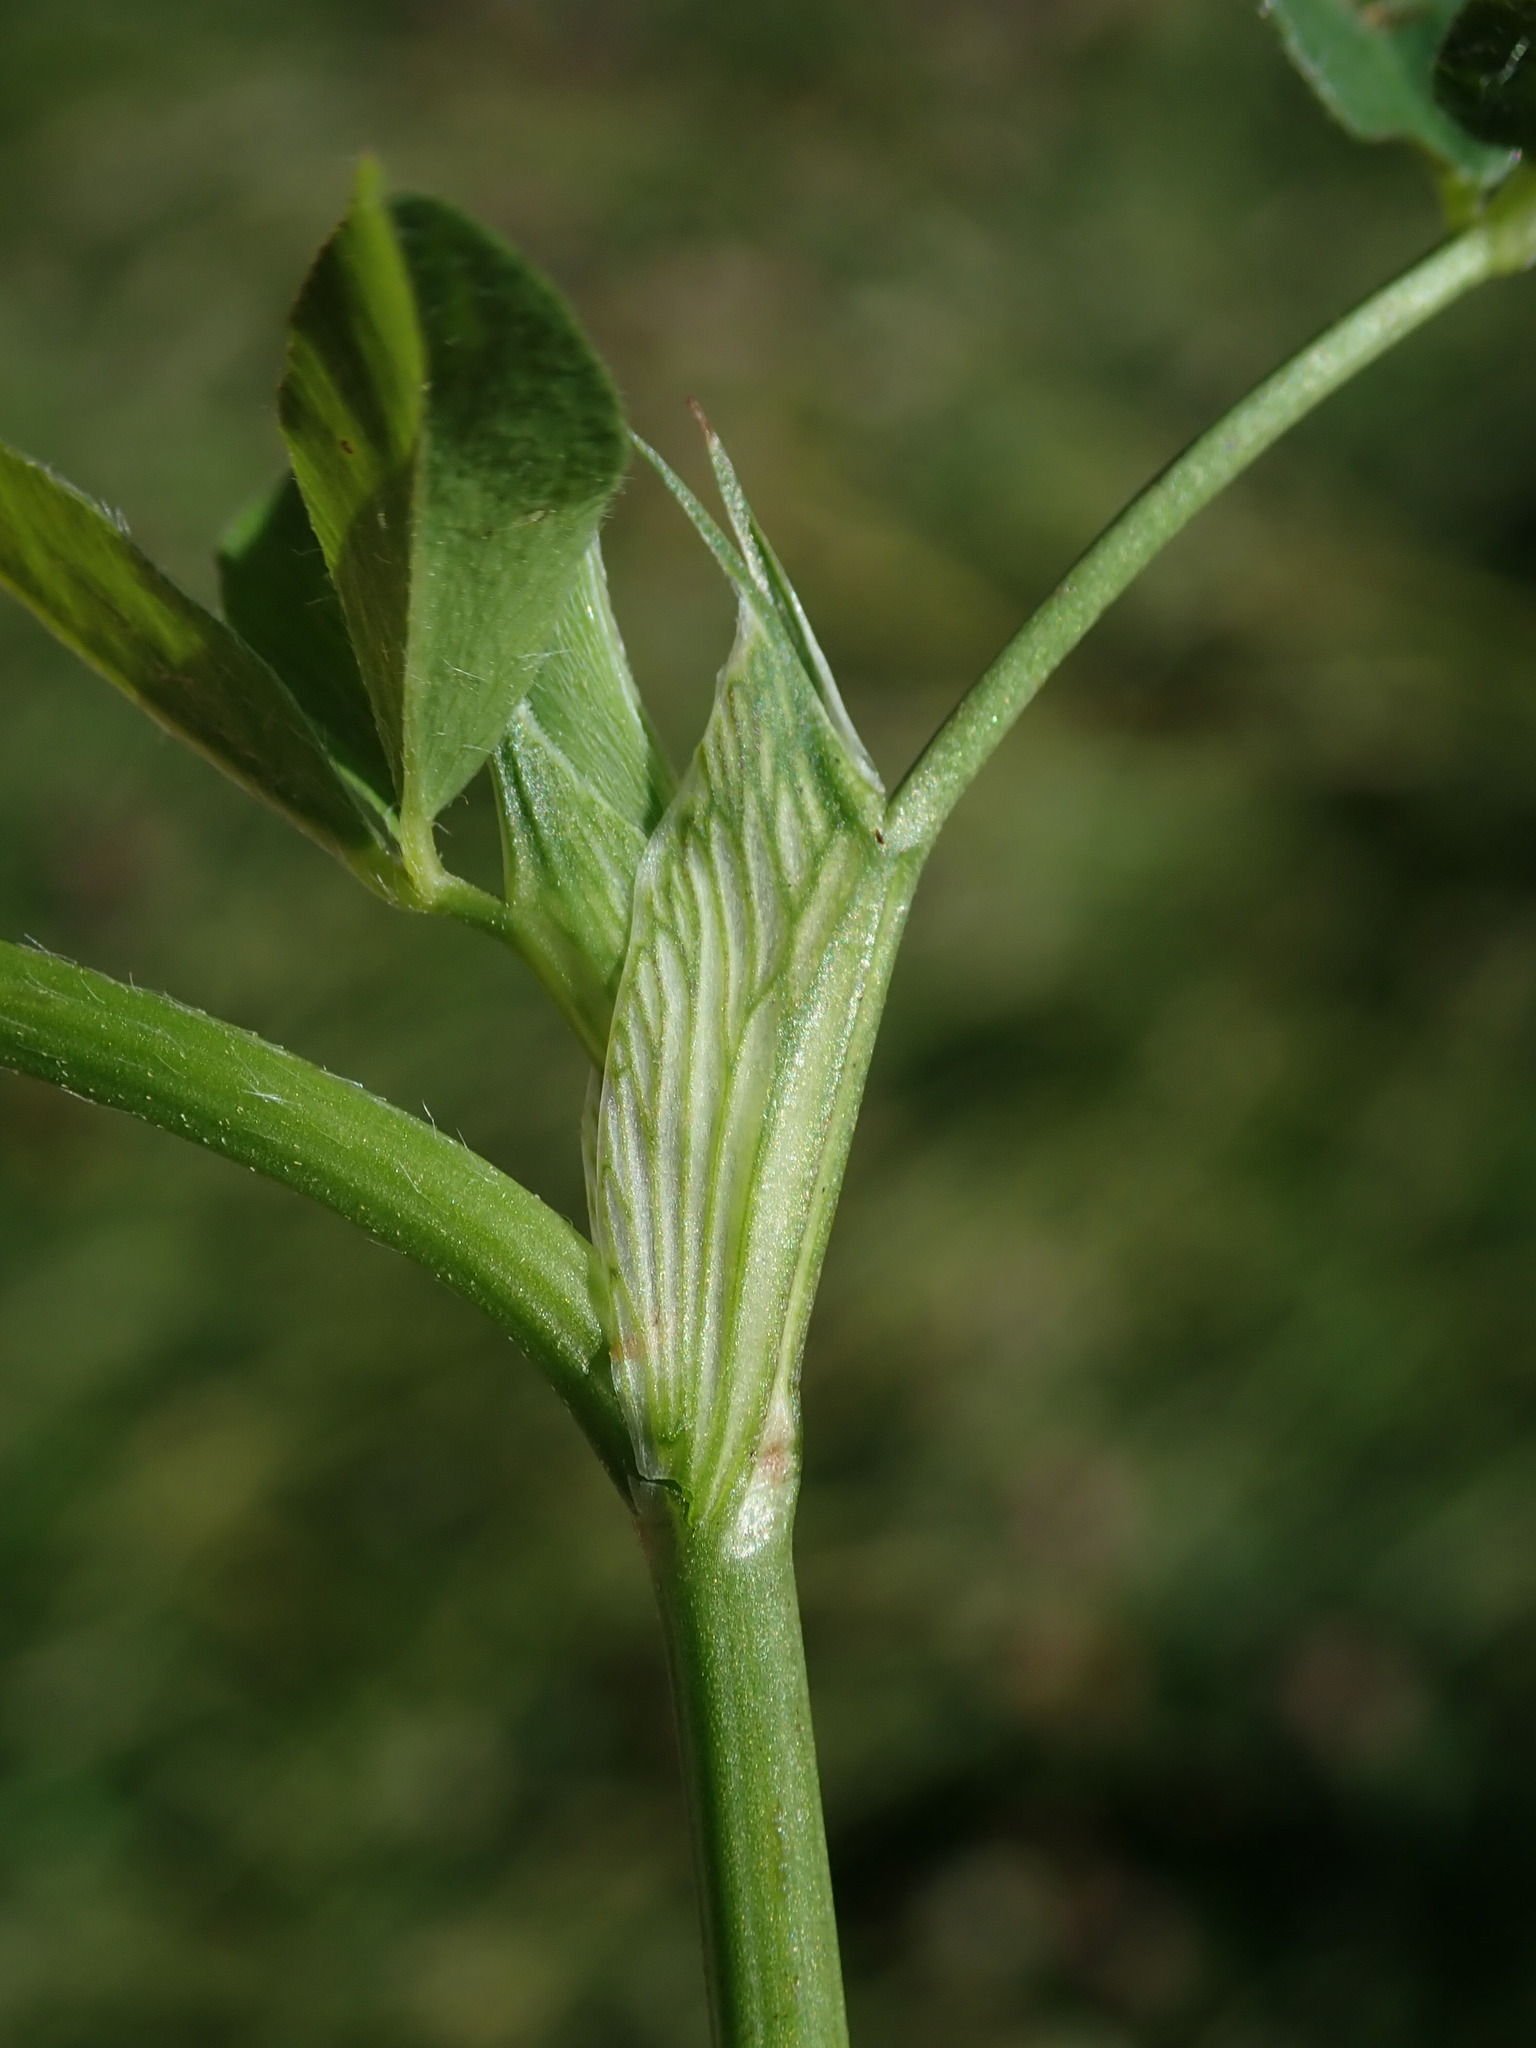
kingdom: Plantae
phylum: Tracheophyta
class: Magnoliopsida
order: Fabales
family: Fabaceae
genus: Trifolium
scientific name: Trifolium pratense
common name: Red clover
